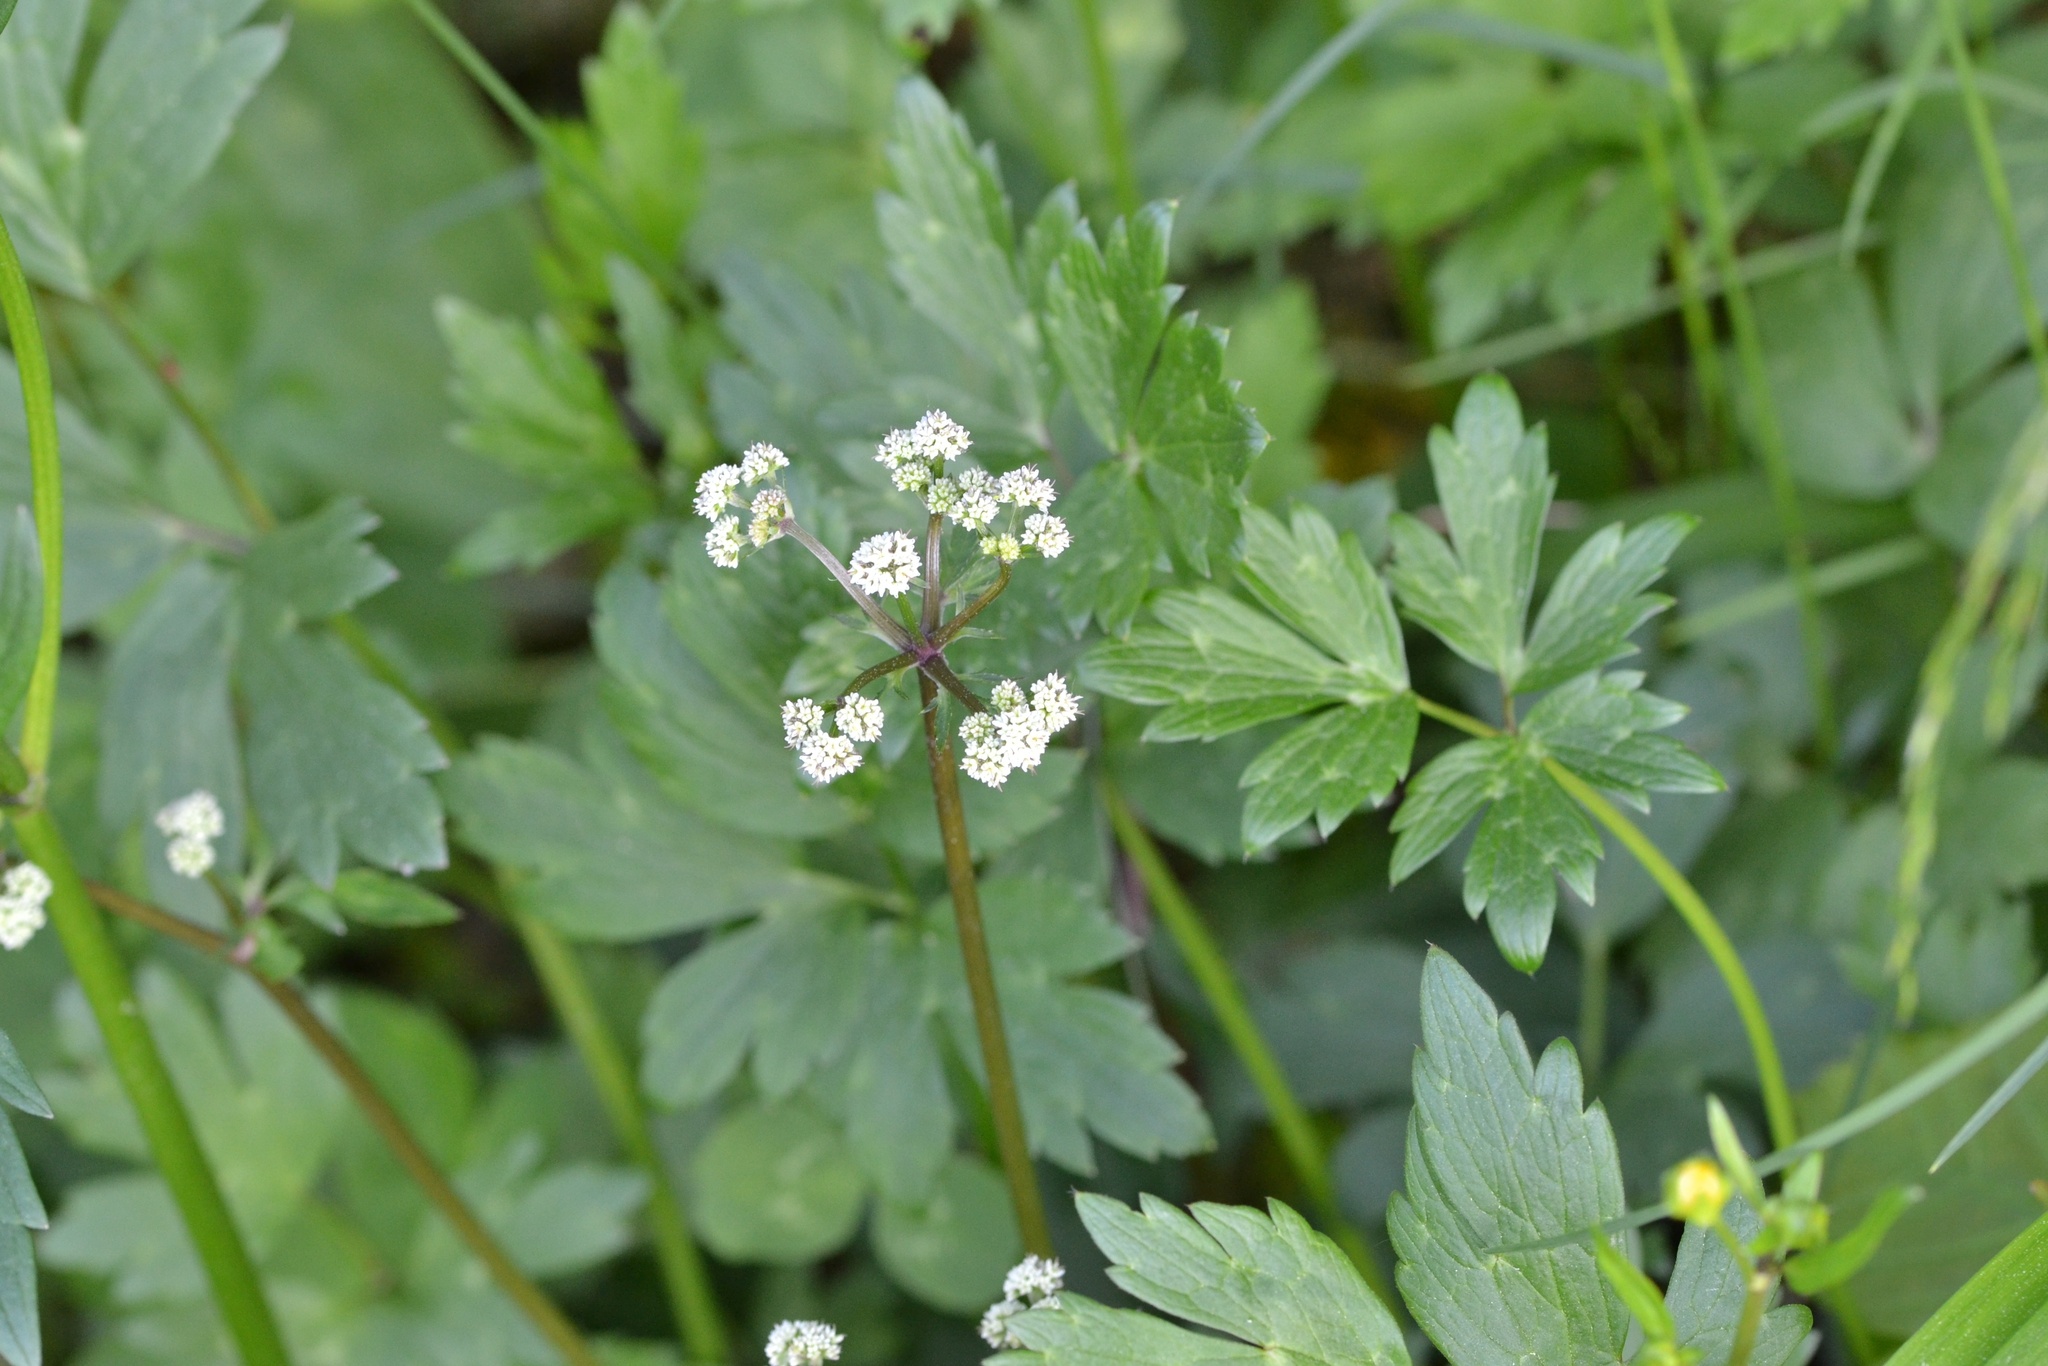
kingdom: Plantae
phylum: Tracheophyta
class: Magnoliopsida
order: Apiales
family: Apiaceae
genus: Sanicula
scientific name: Sanicula europaea
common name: Sanicle
